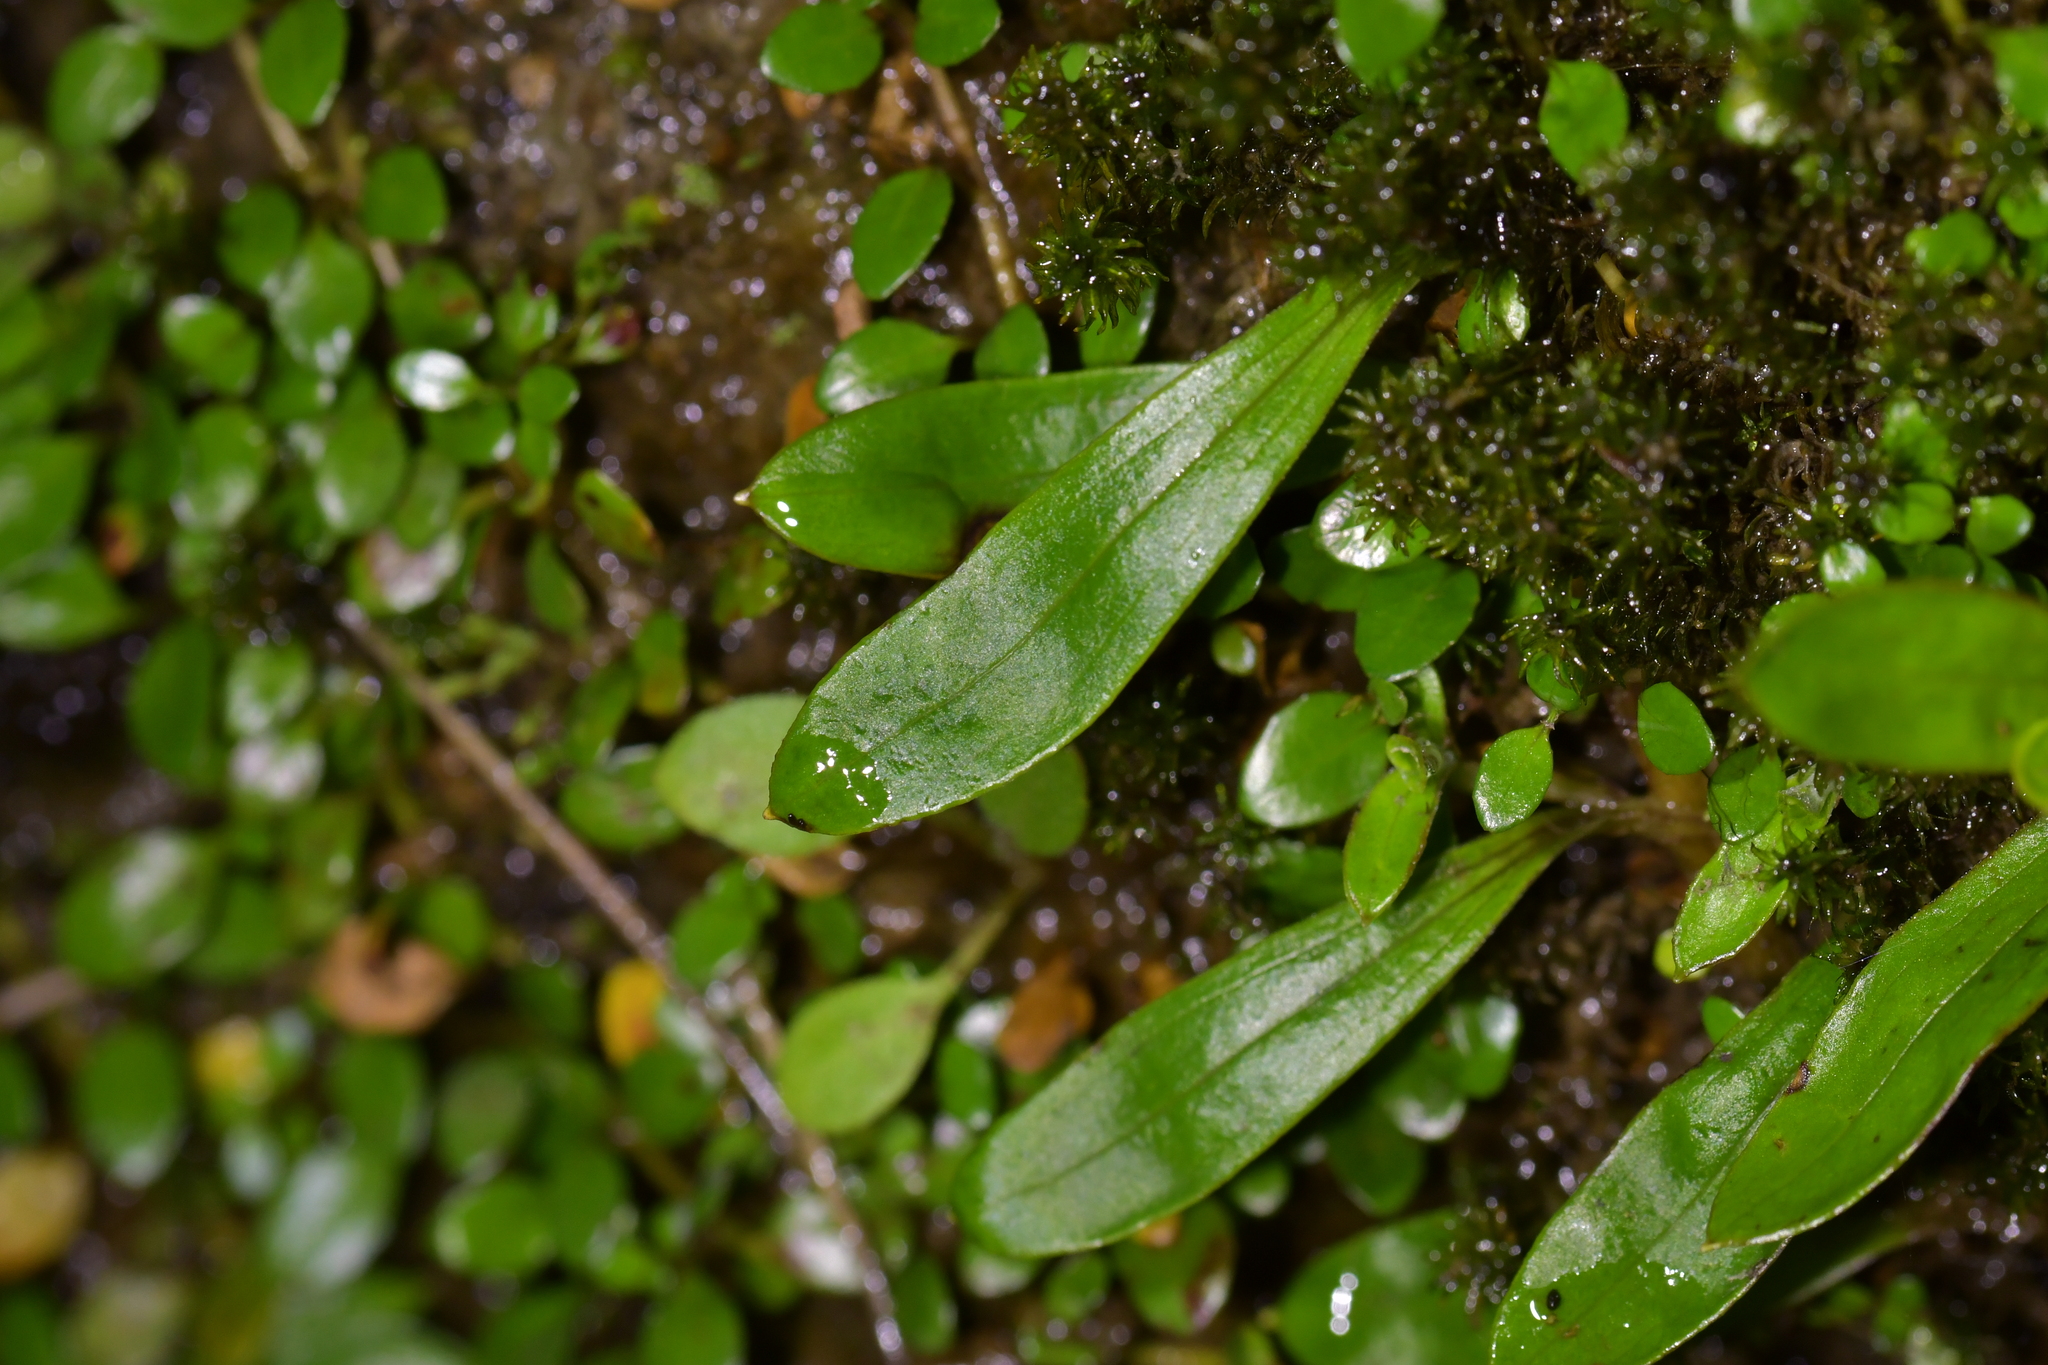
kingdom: Plantae
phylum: Tracheophyta
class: Magnoliopsida
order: Asterales
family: Asteraceae
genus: Anaphalioides
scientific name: Anaphalioides trinervis
